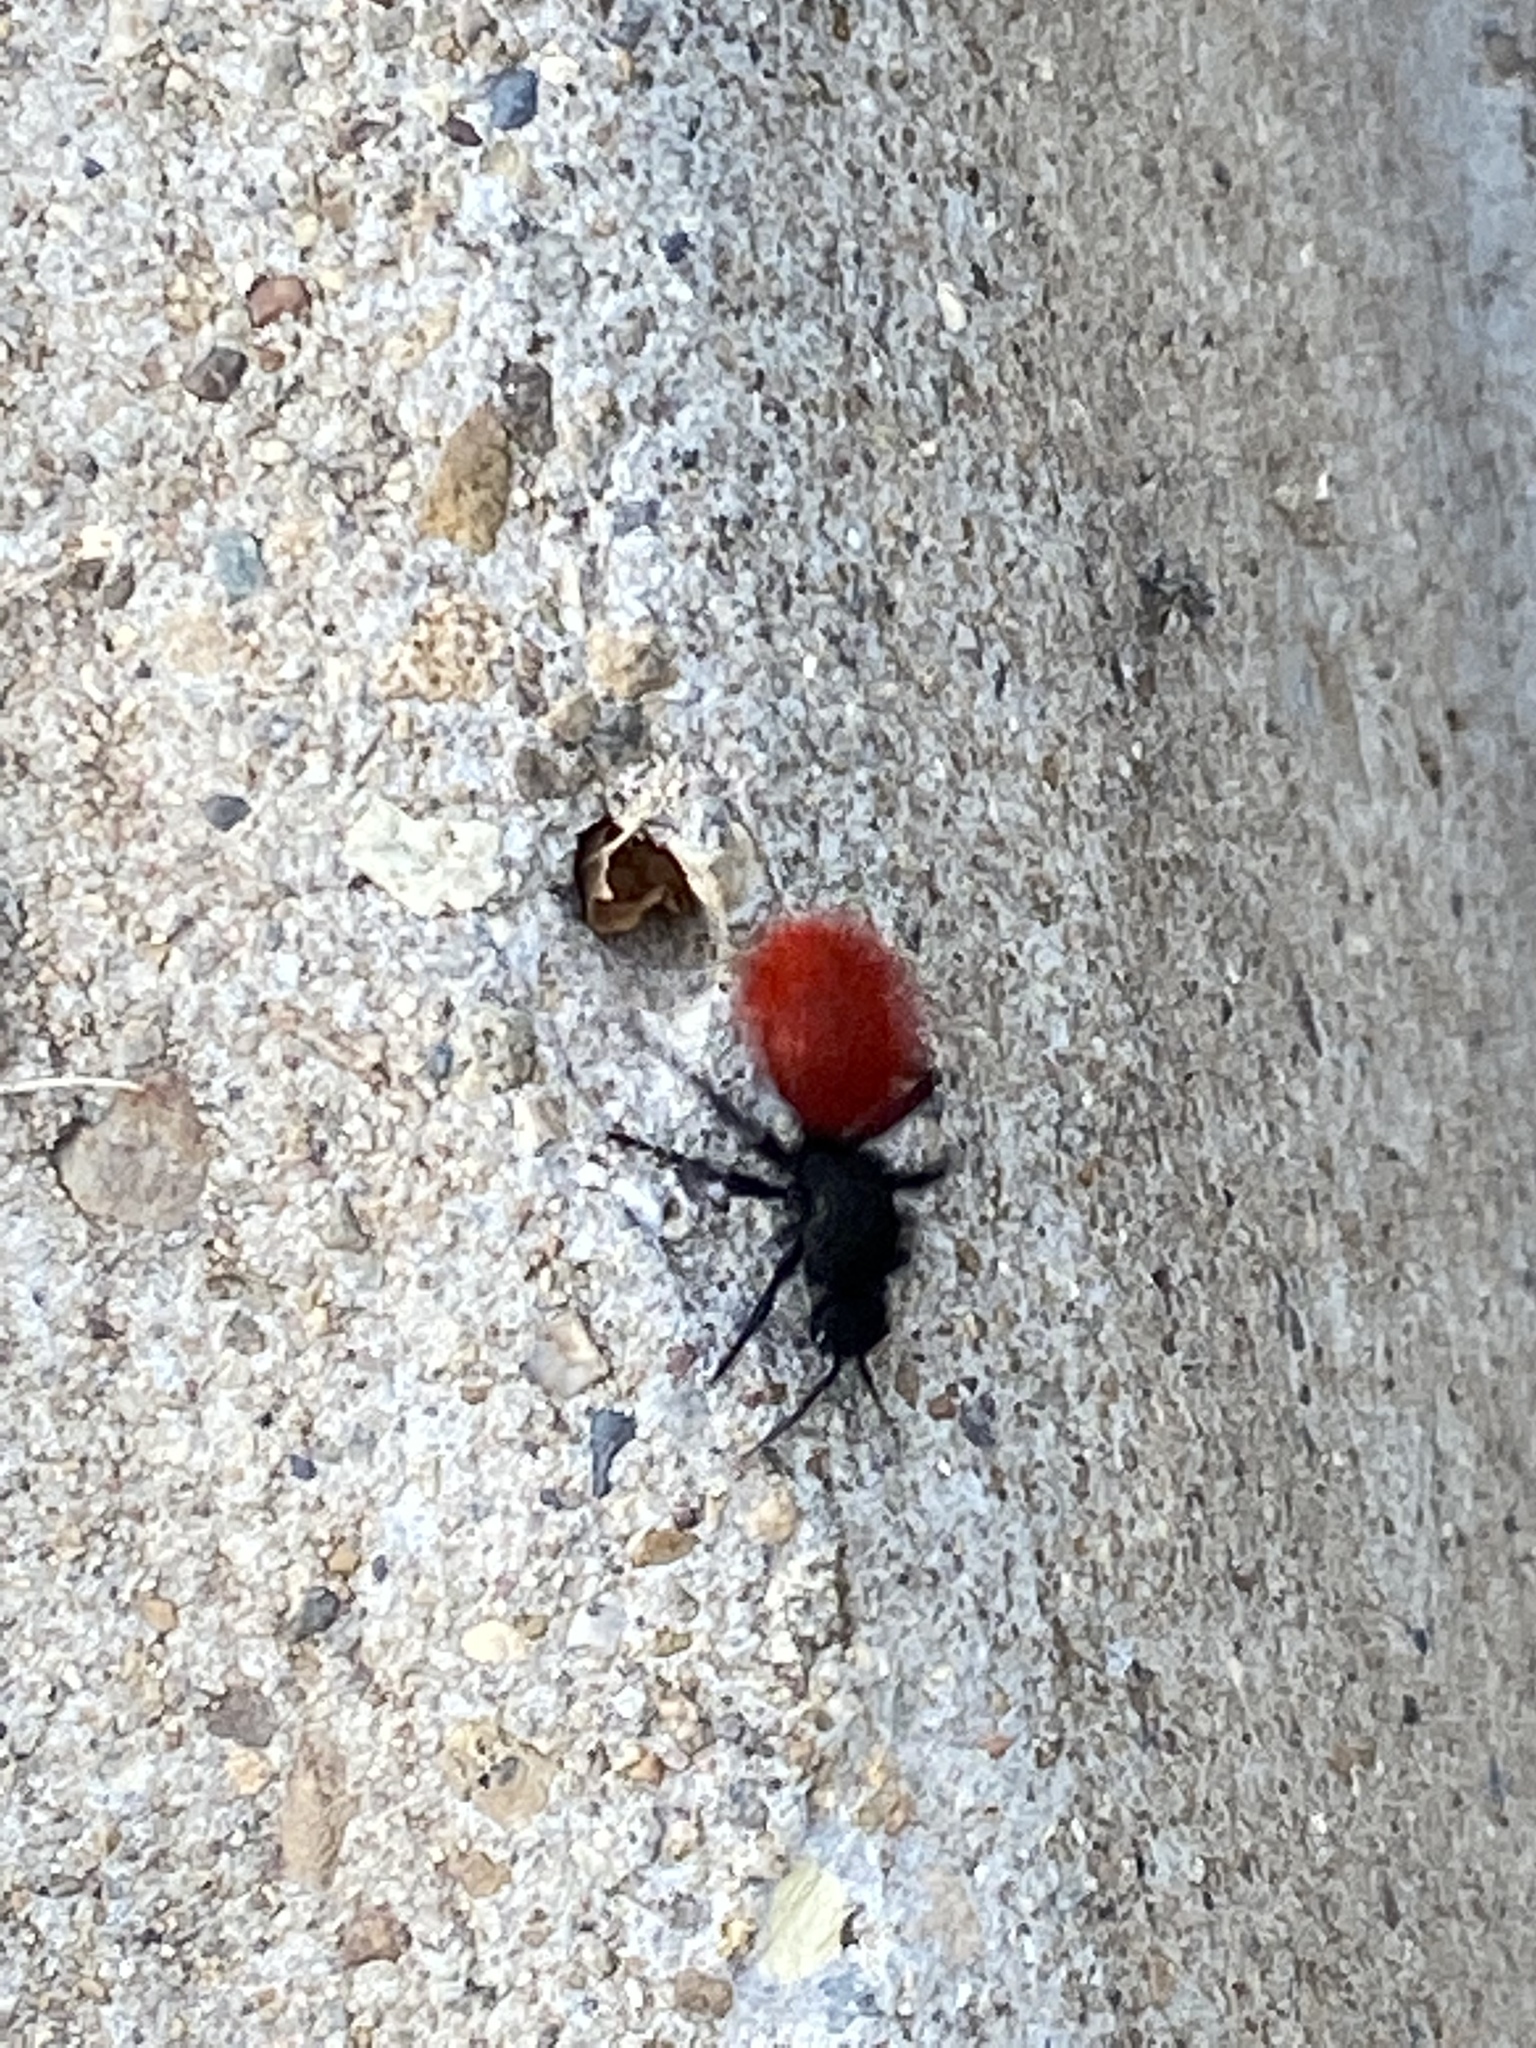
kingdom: Animalia
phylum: Arthropoda
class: Insecta
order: Hymenoptera
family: Mutillidae
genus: Dasymutilla
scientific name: Dasymutilla
